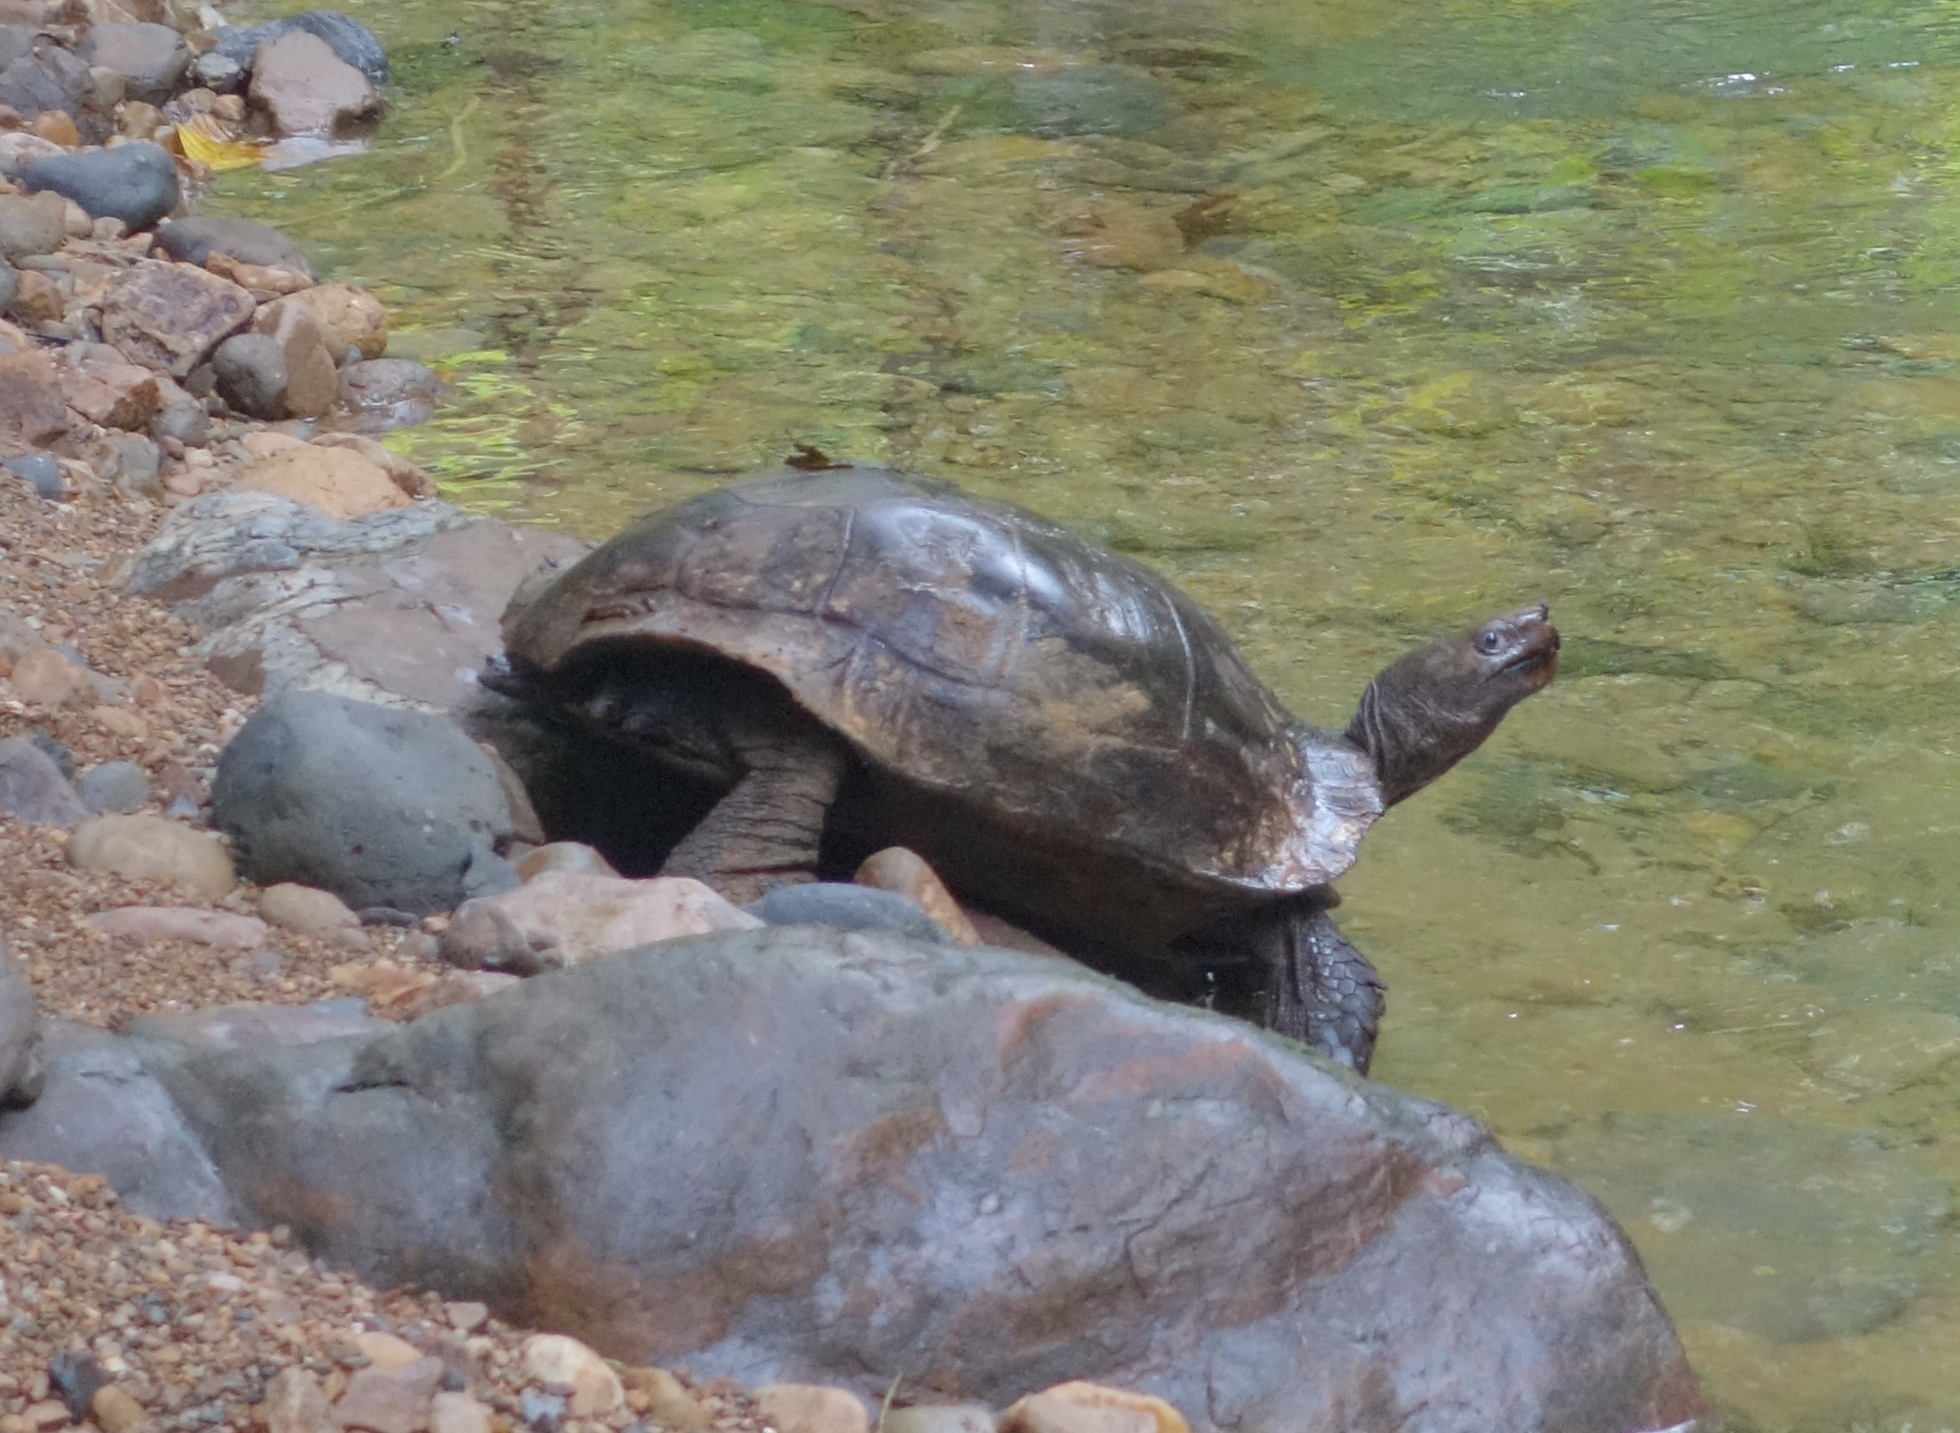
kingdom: Animalia
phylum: Chordata
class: Testudines
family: Testudinidae
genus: Manouria
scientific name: Manouria emys
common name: Asian brown tortoise
